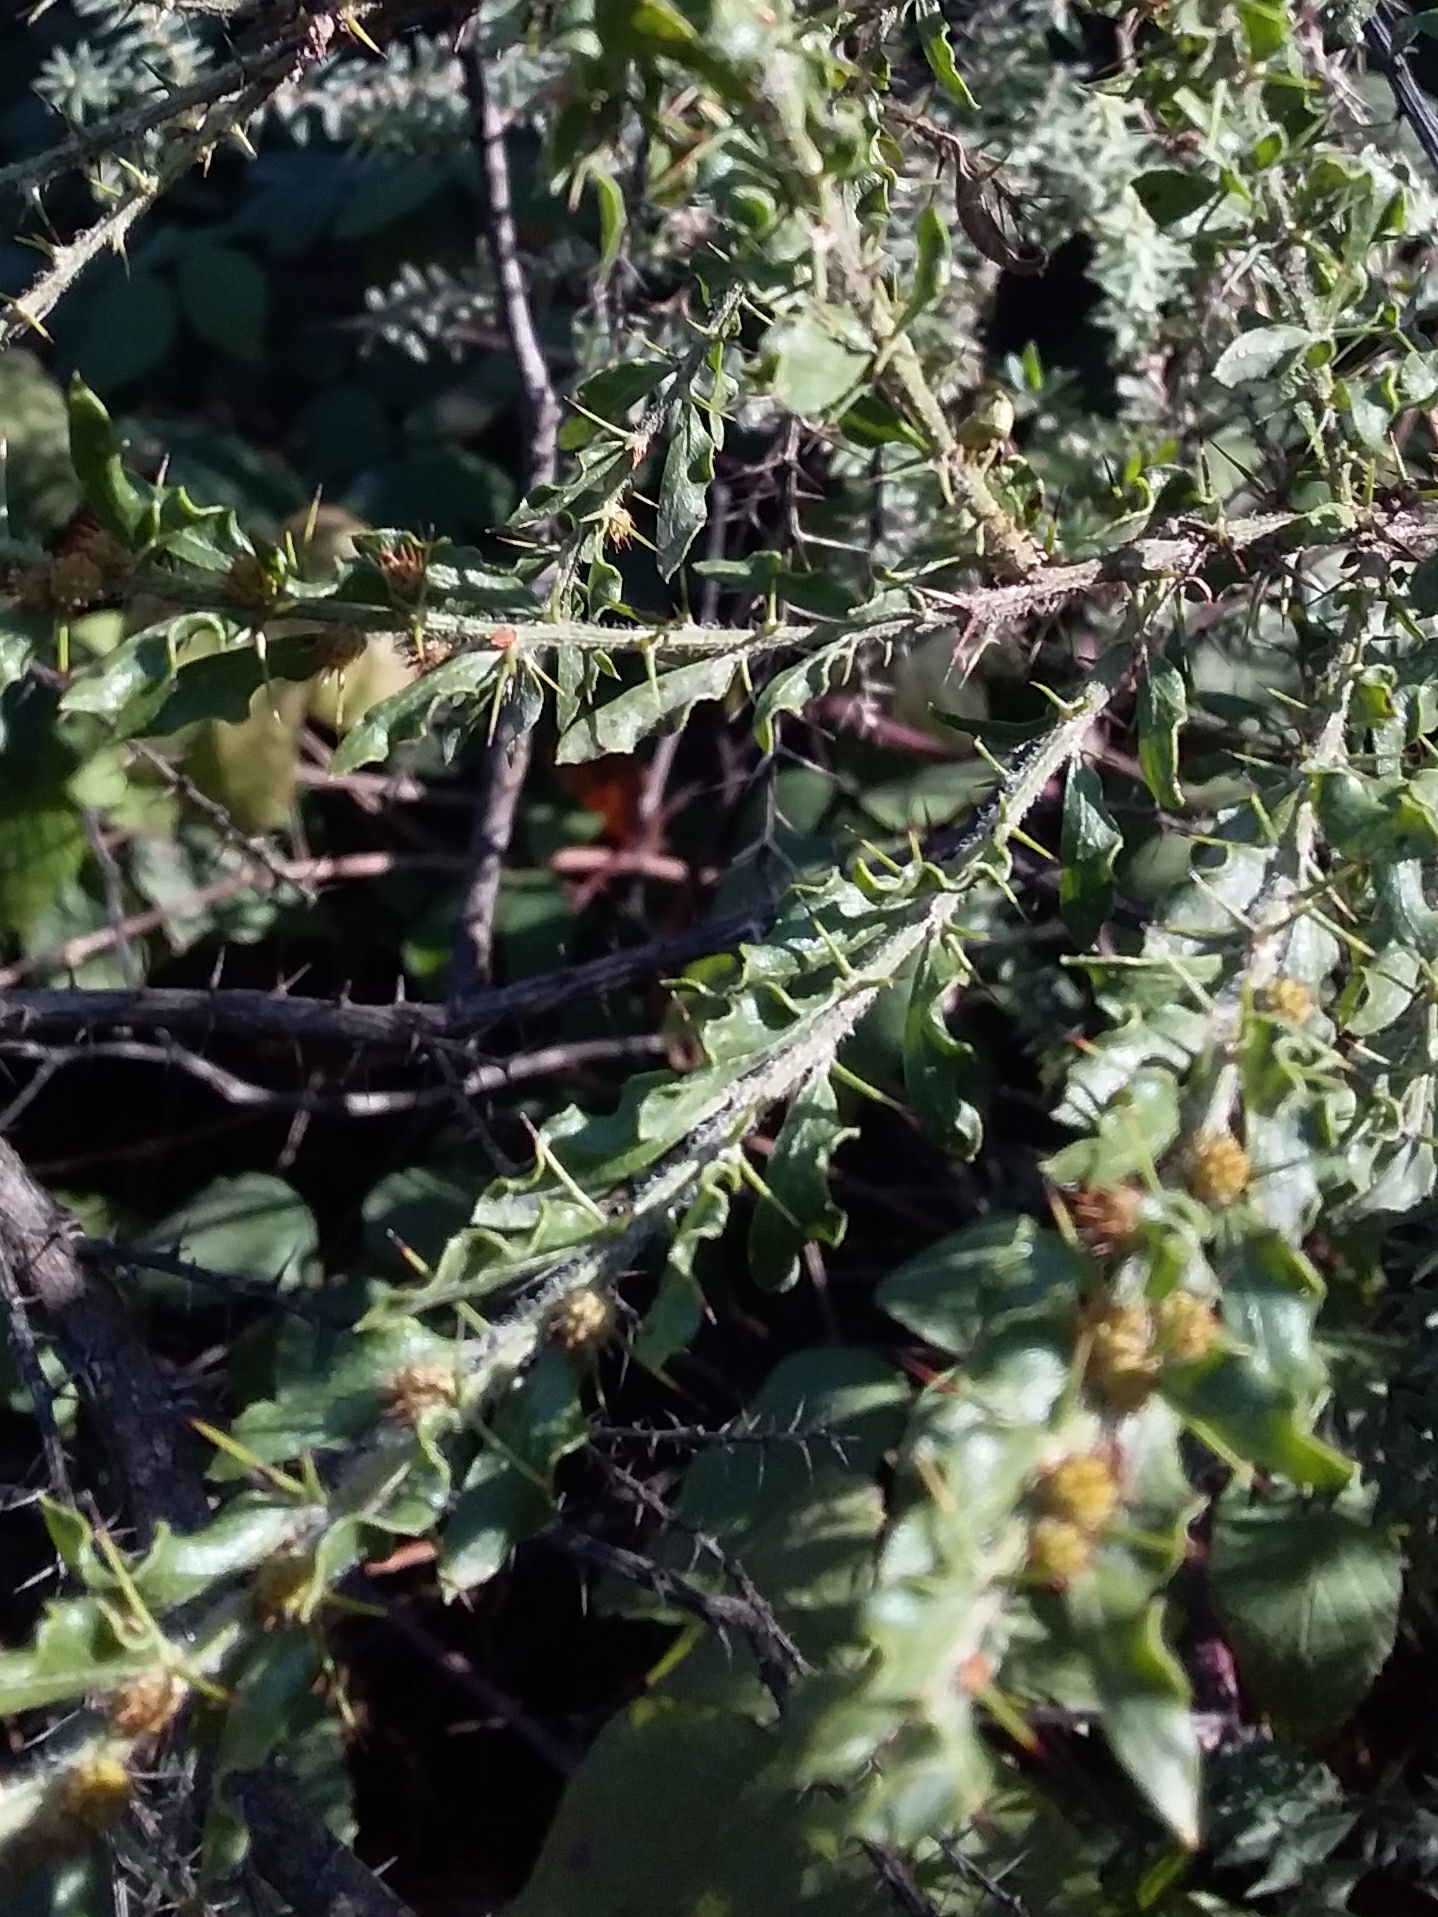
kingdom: Plantae
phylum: Tracheophyta
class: Magnoliopsida
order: Fabales
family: Fabaceae
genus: Acacia
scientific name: Acacia paradoxa
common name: Paradox acacia
